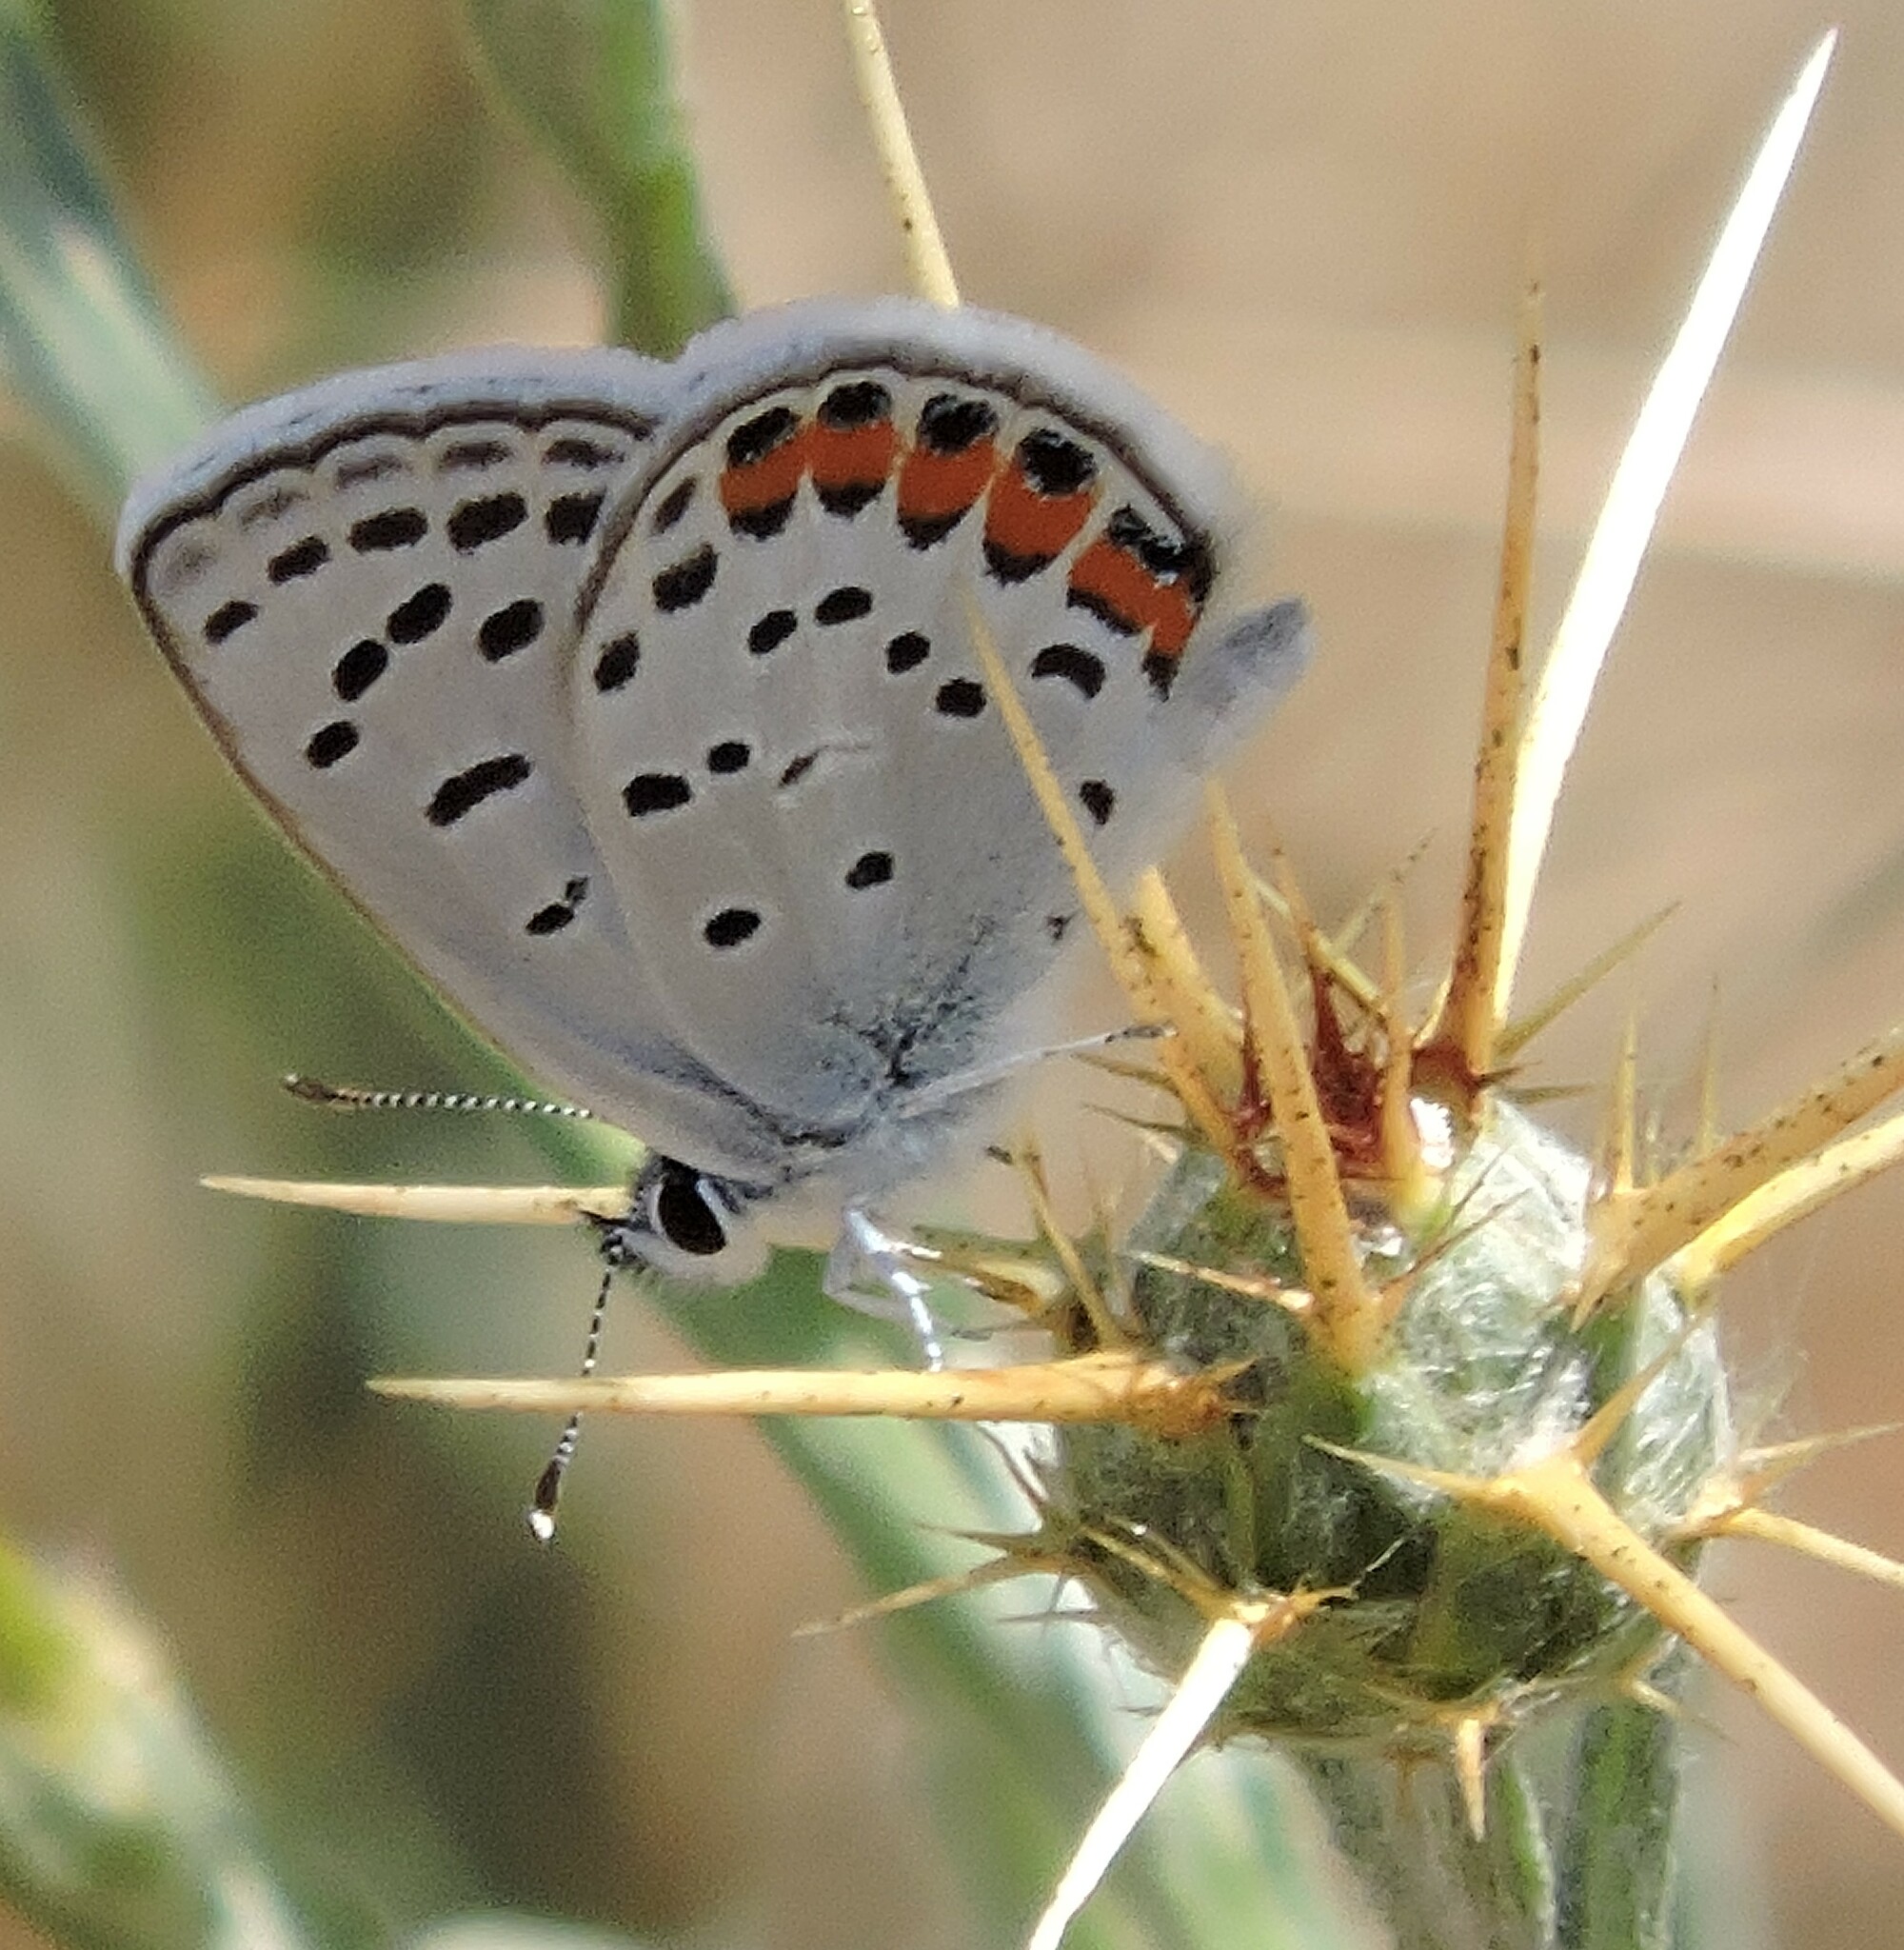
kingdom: Animalia
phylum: Arthropoda
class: Insecta
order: Lepidoptera
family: Lycaenidae
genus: Icaricia
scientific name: Icaricia acmon
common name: Acmon blue
